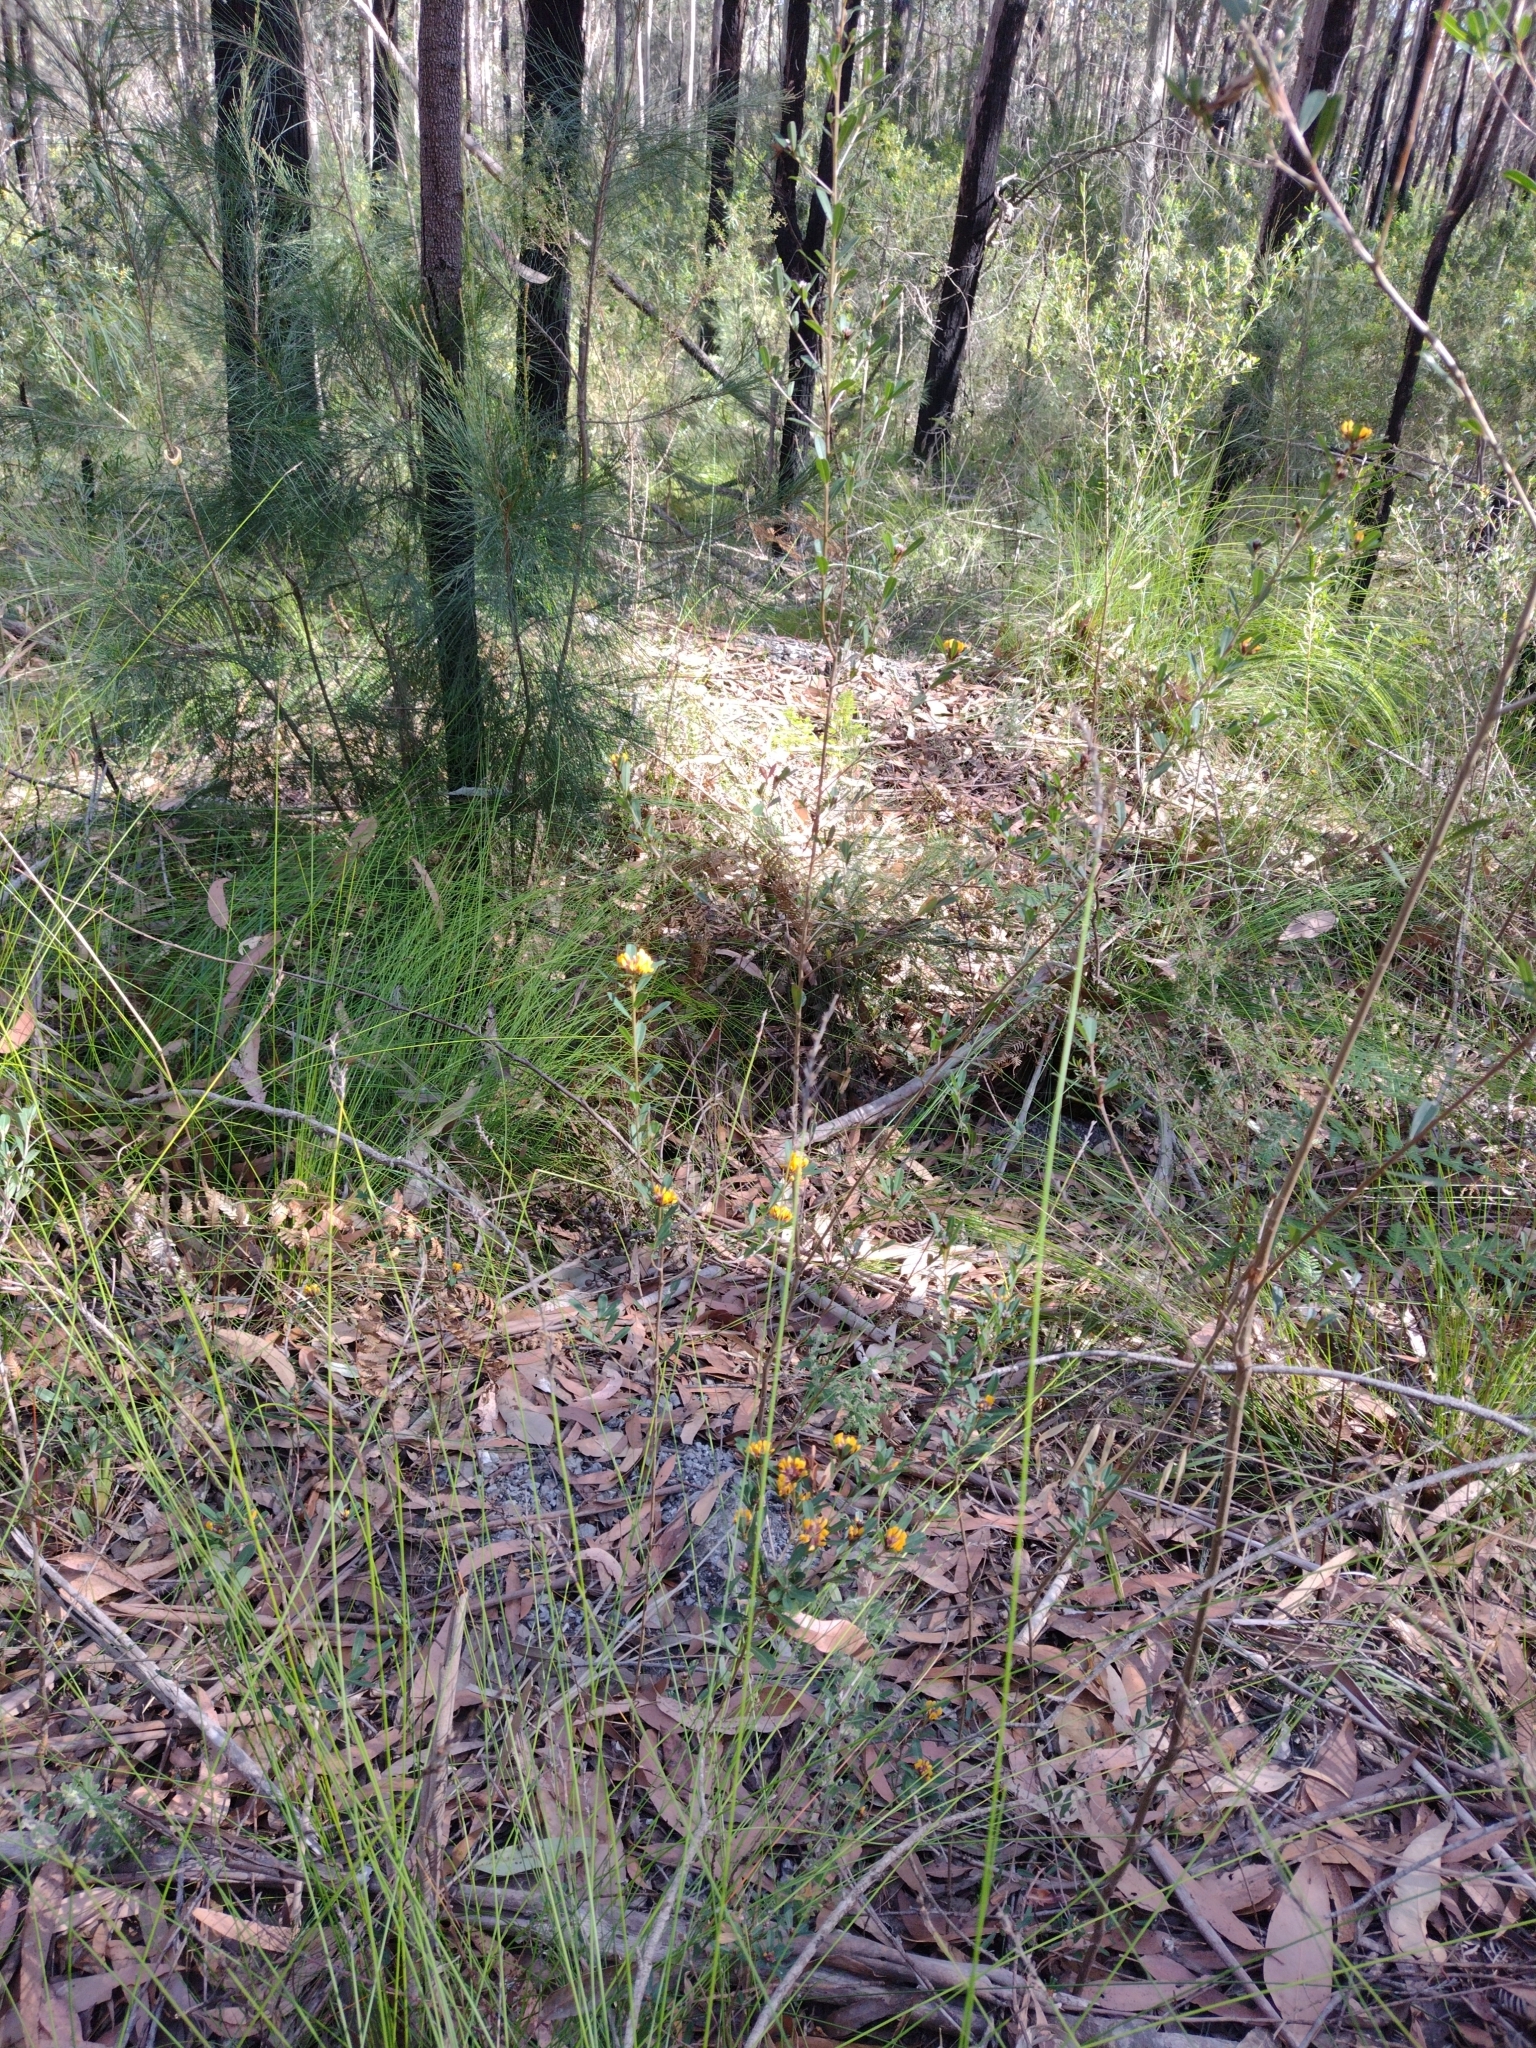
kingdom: Plantae
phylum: Tracheophyta
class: Magnoliopsida
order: Fabales
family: Fabaceae
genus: Pultenaea
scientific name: Pultenaea daphnoides
